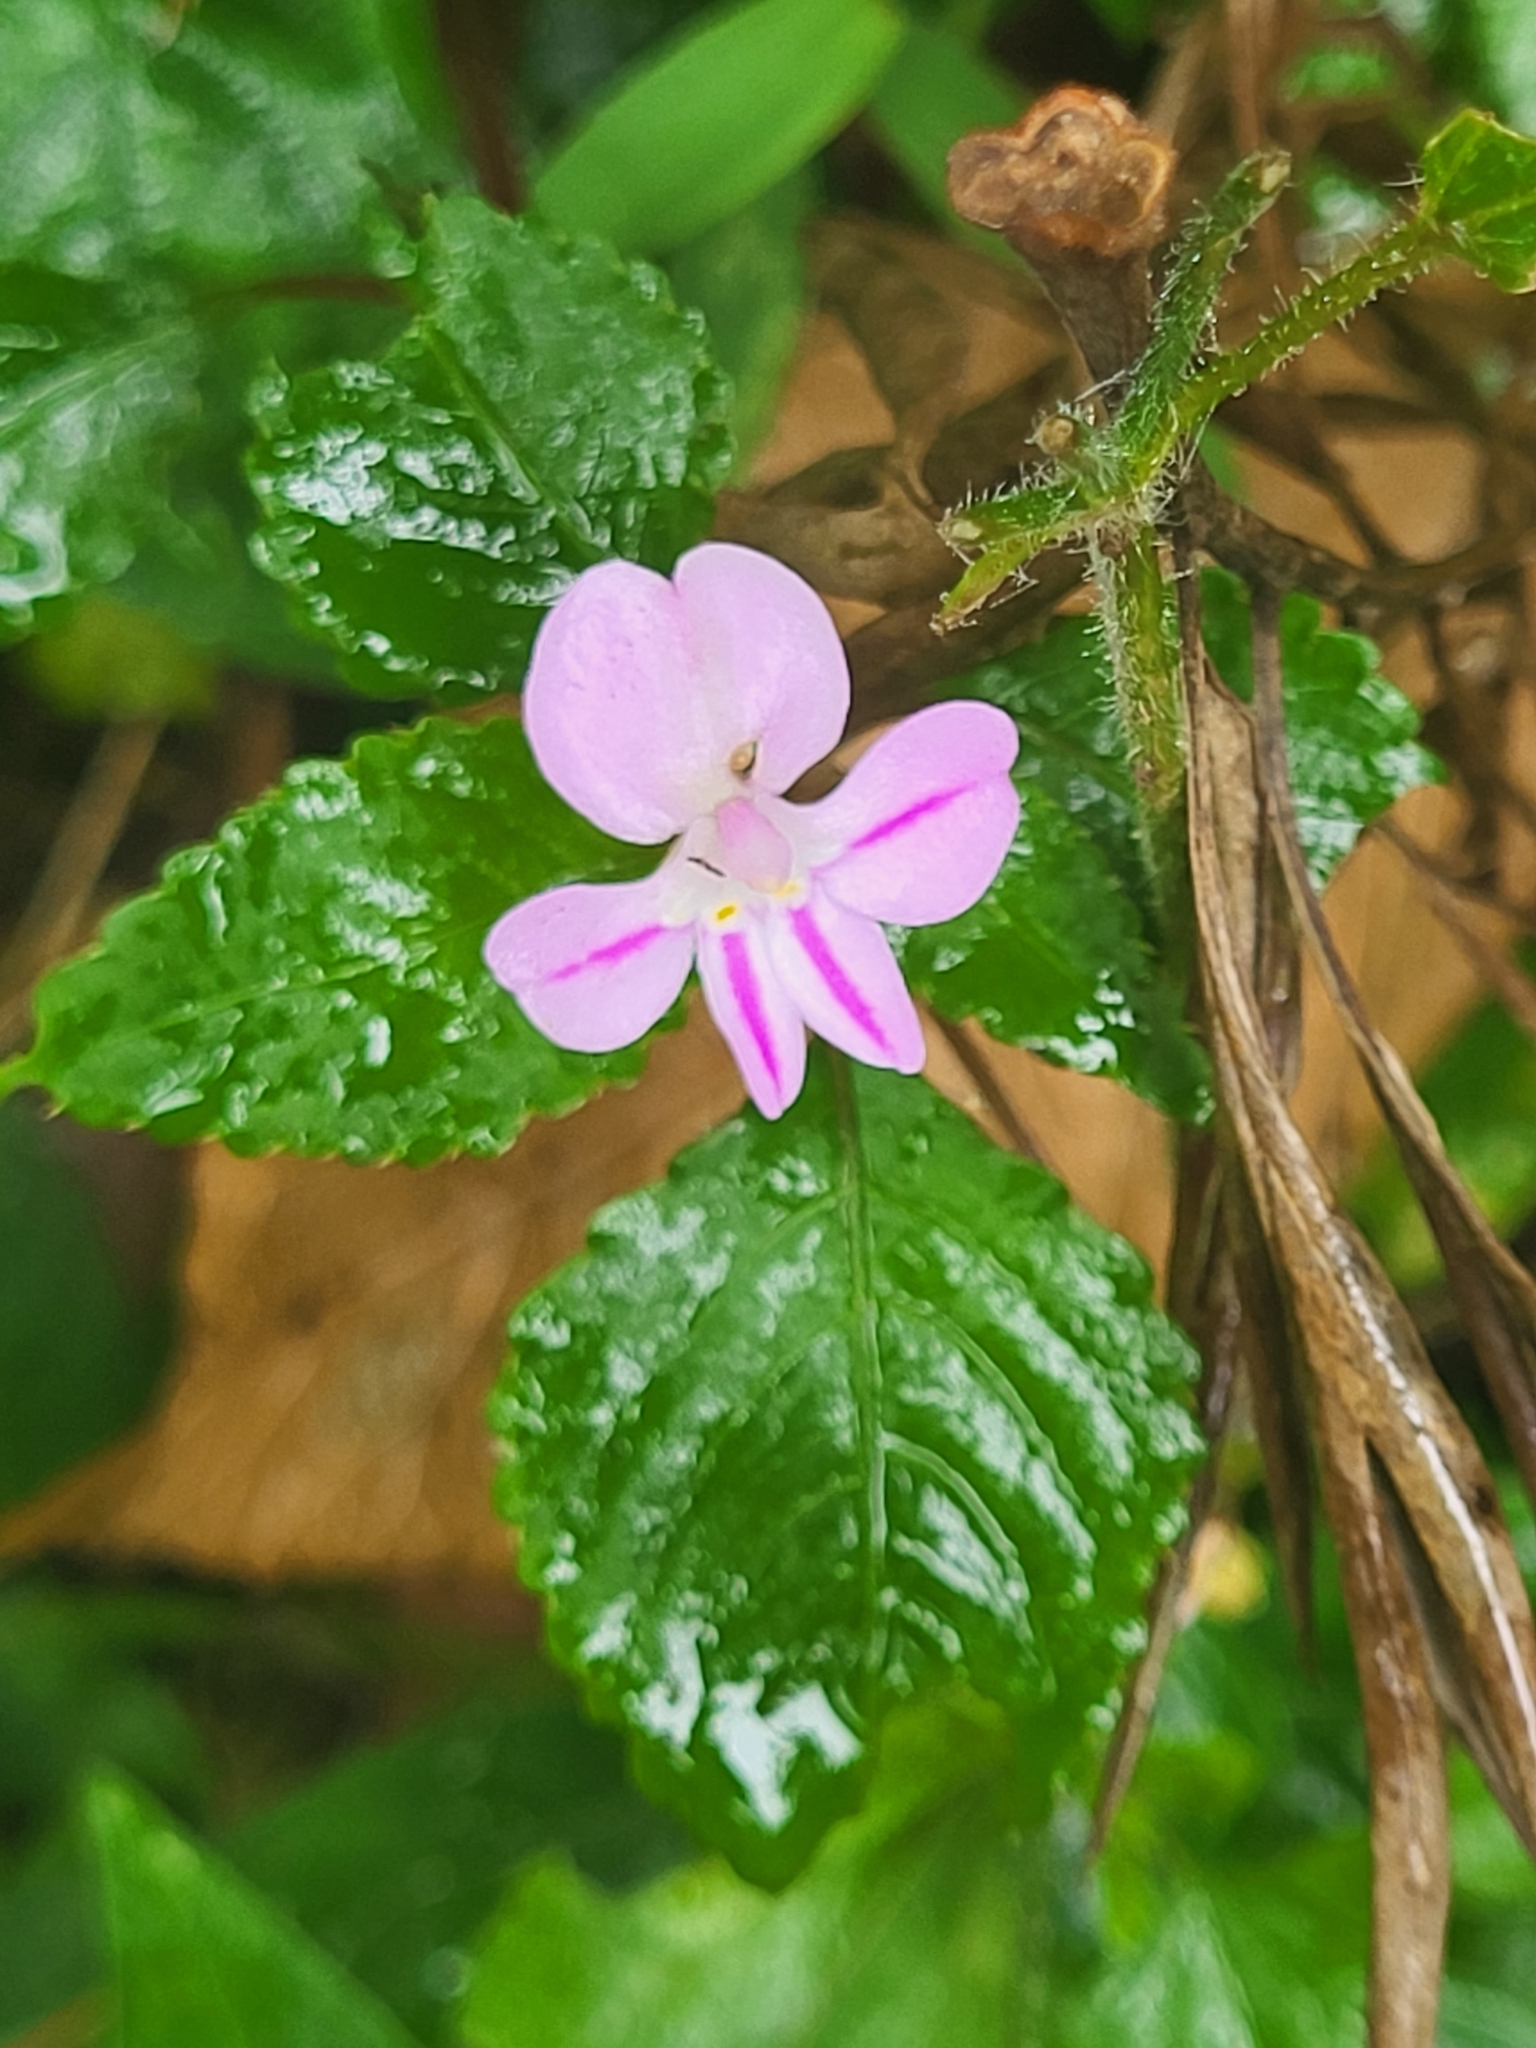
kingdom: Plantae
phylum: Tracheophyta
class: Magnoliopsida
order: Ericales
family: Balsaminaceae
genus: Impatiens
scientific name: Impatiens pseudoviola
